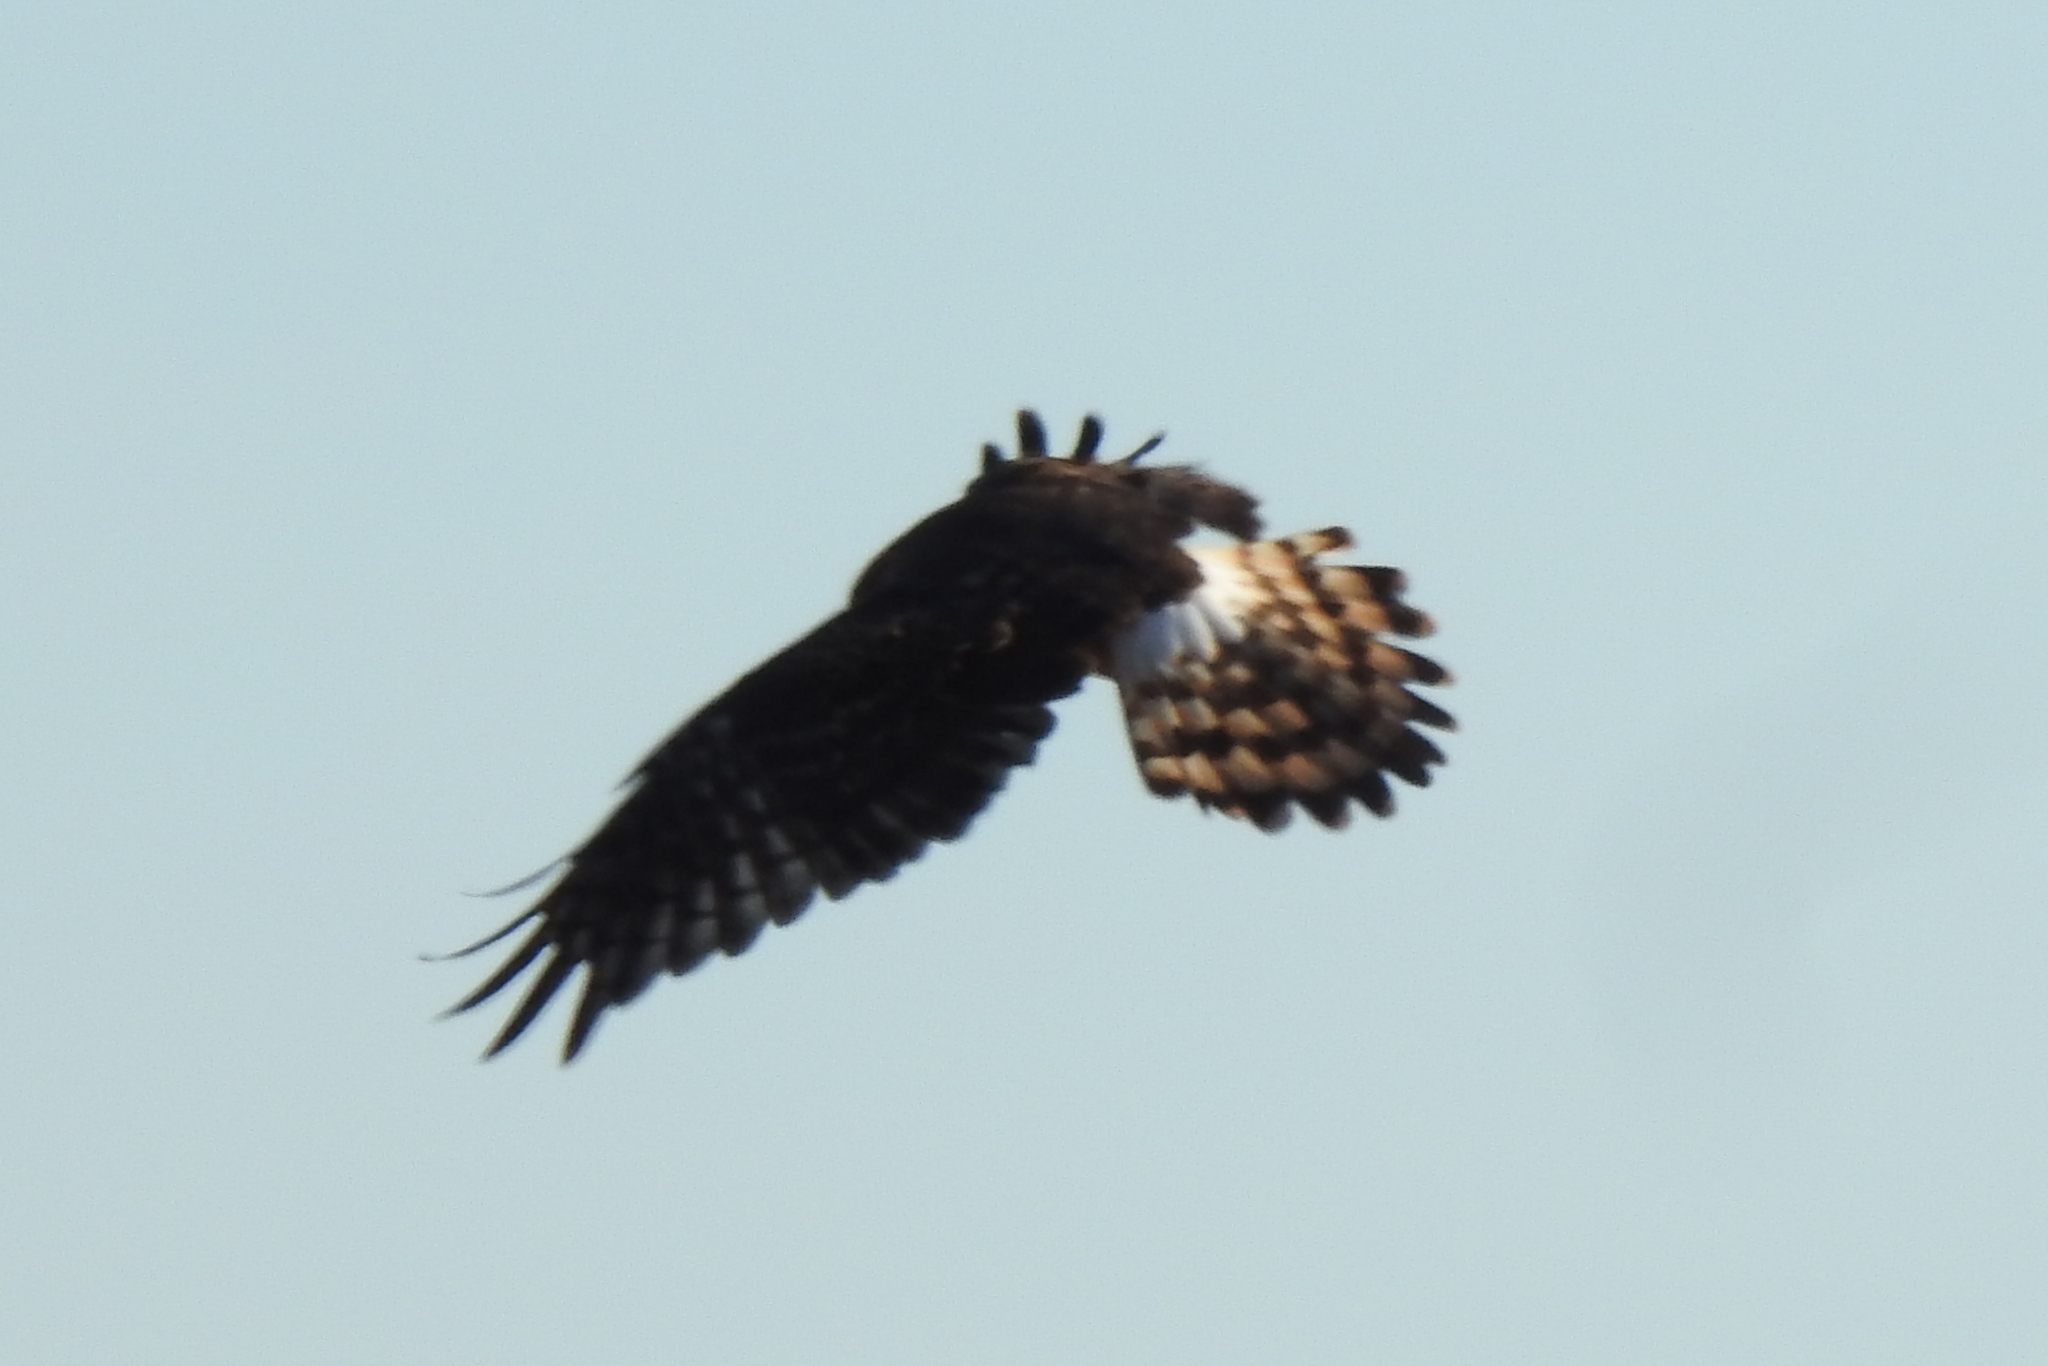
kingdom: Animalia
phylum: Chordata
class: Aves
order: Accipitriformes
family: Accipitridae
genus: Circus
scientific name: Circus cyaneus
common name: Hen harrier
